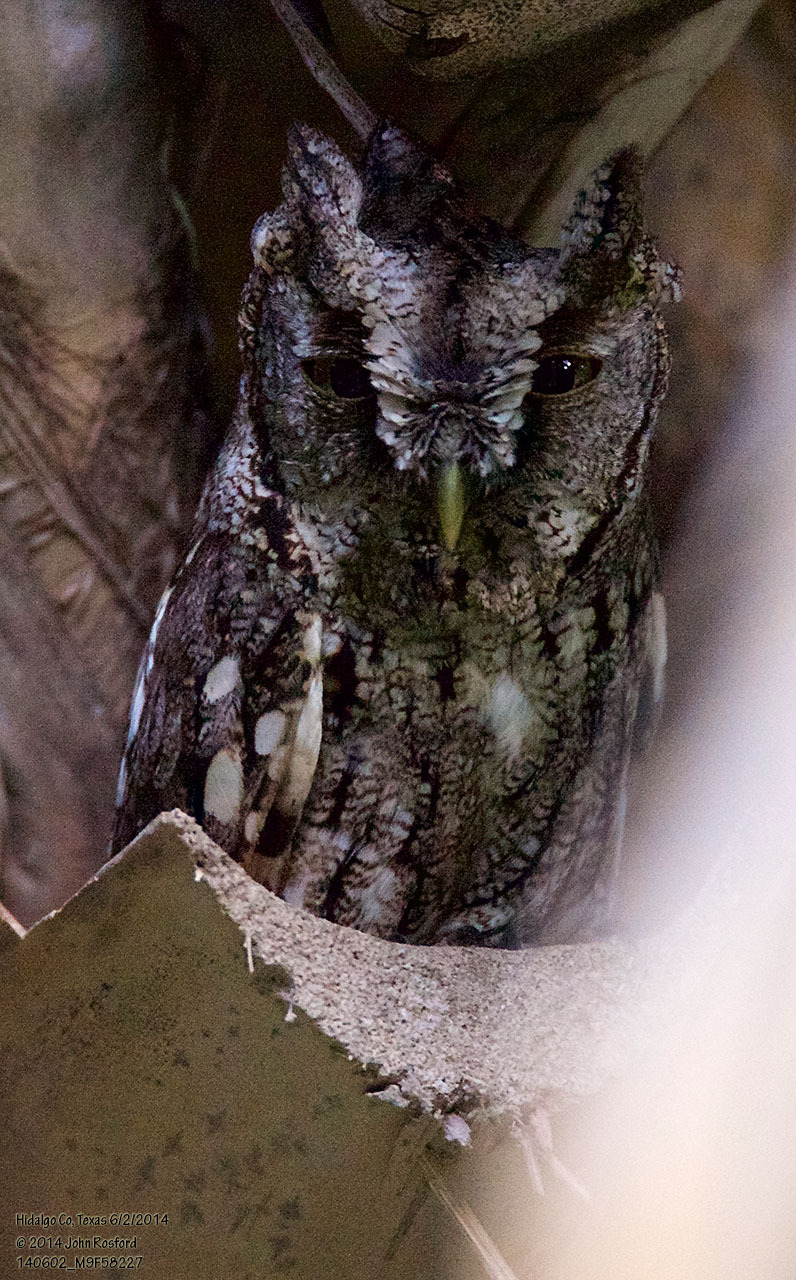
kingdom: Animalia
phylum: Chordata
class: Aves
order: Strigiformes
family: Strigidae
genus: Megascops
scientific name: Megascops asio
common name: Eastern screech-owl
